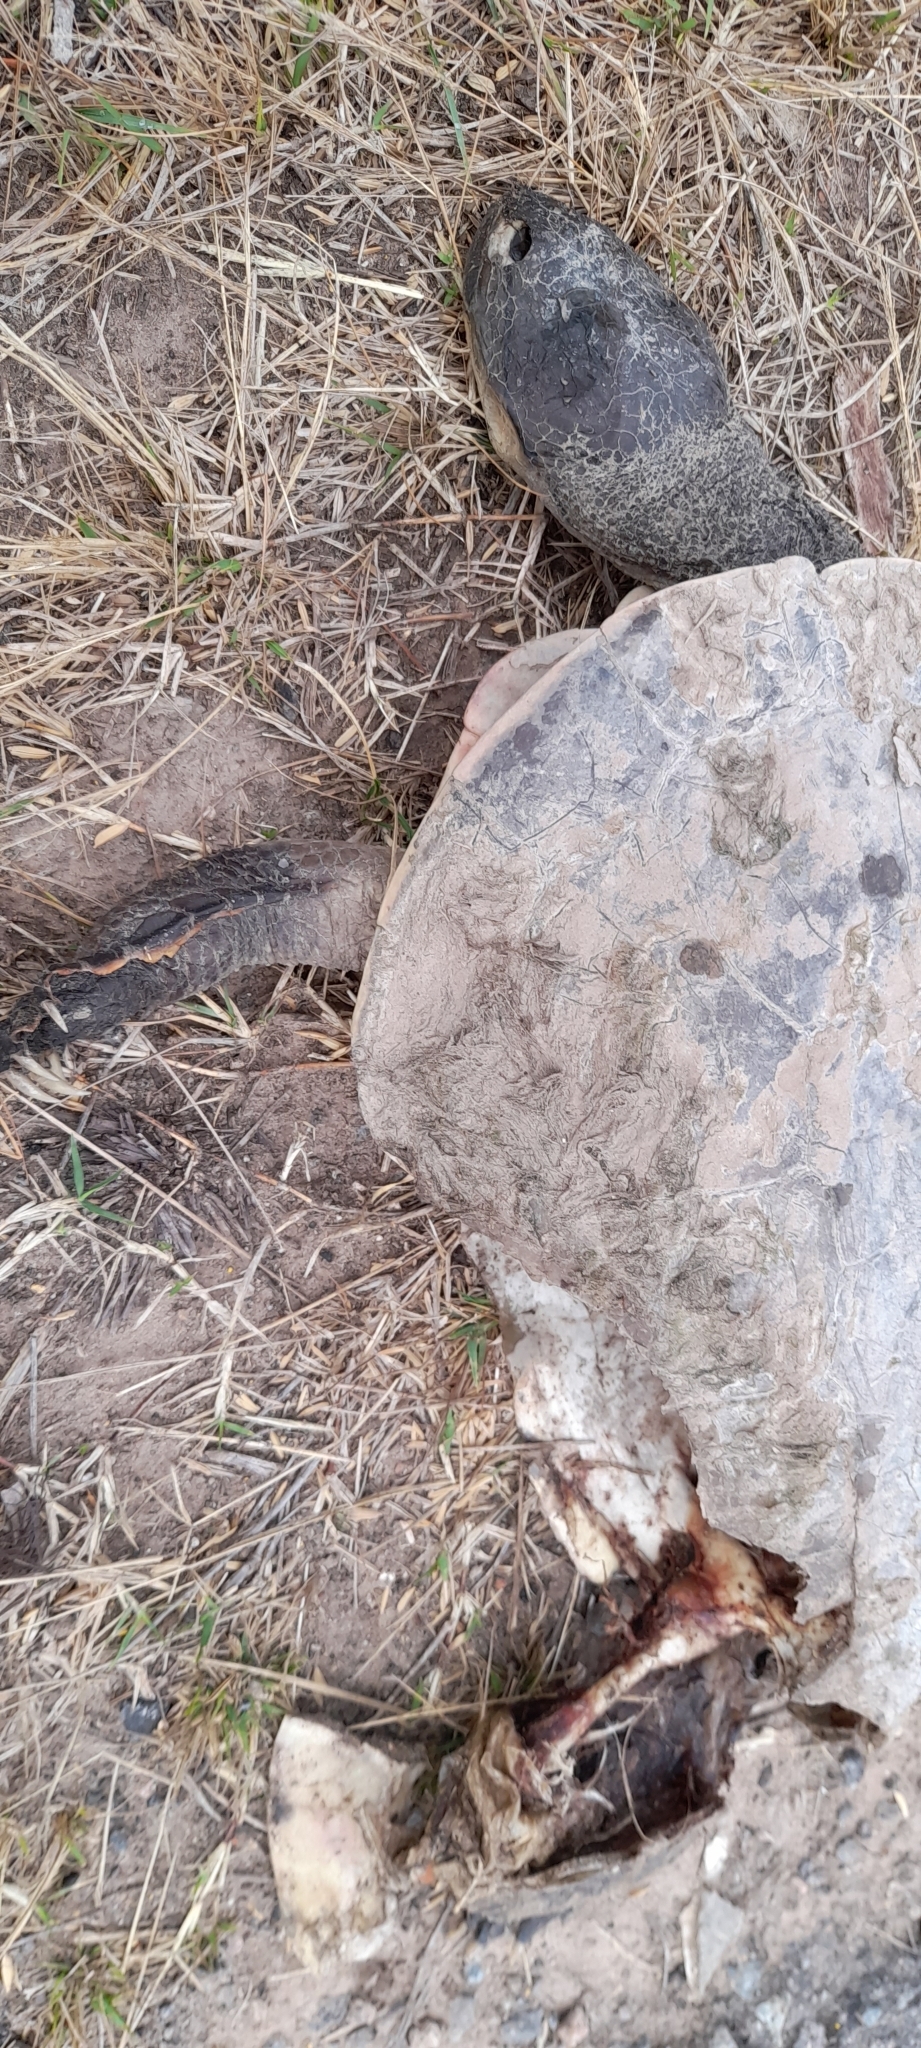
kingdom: Animalia
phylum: Chordata
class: Testudines
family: Chelidae
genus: Phrynops
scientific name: Phrynops hilarii
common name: Side-necked turtle of saint hillaire
